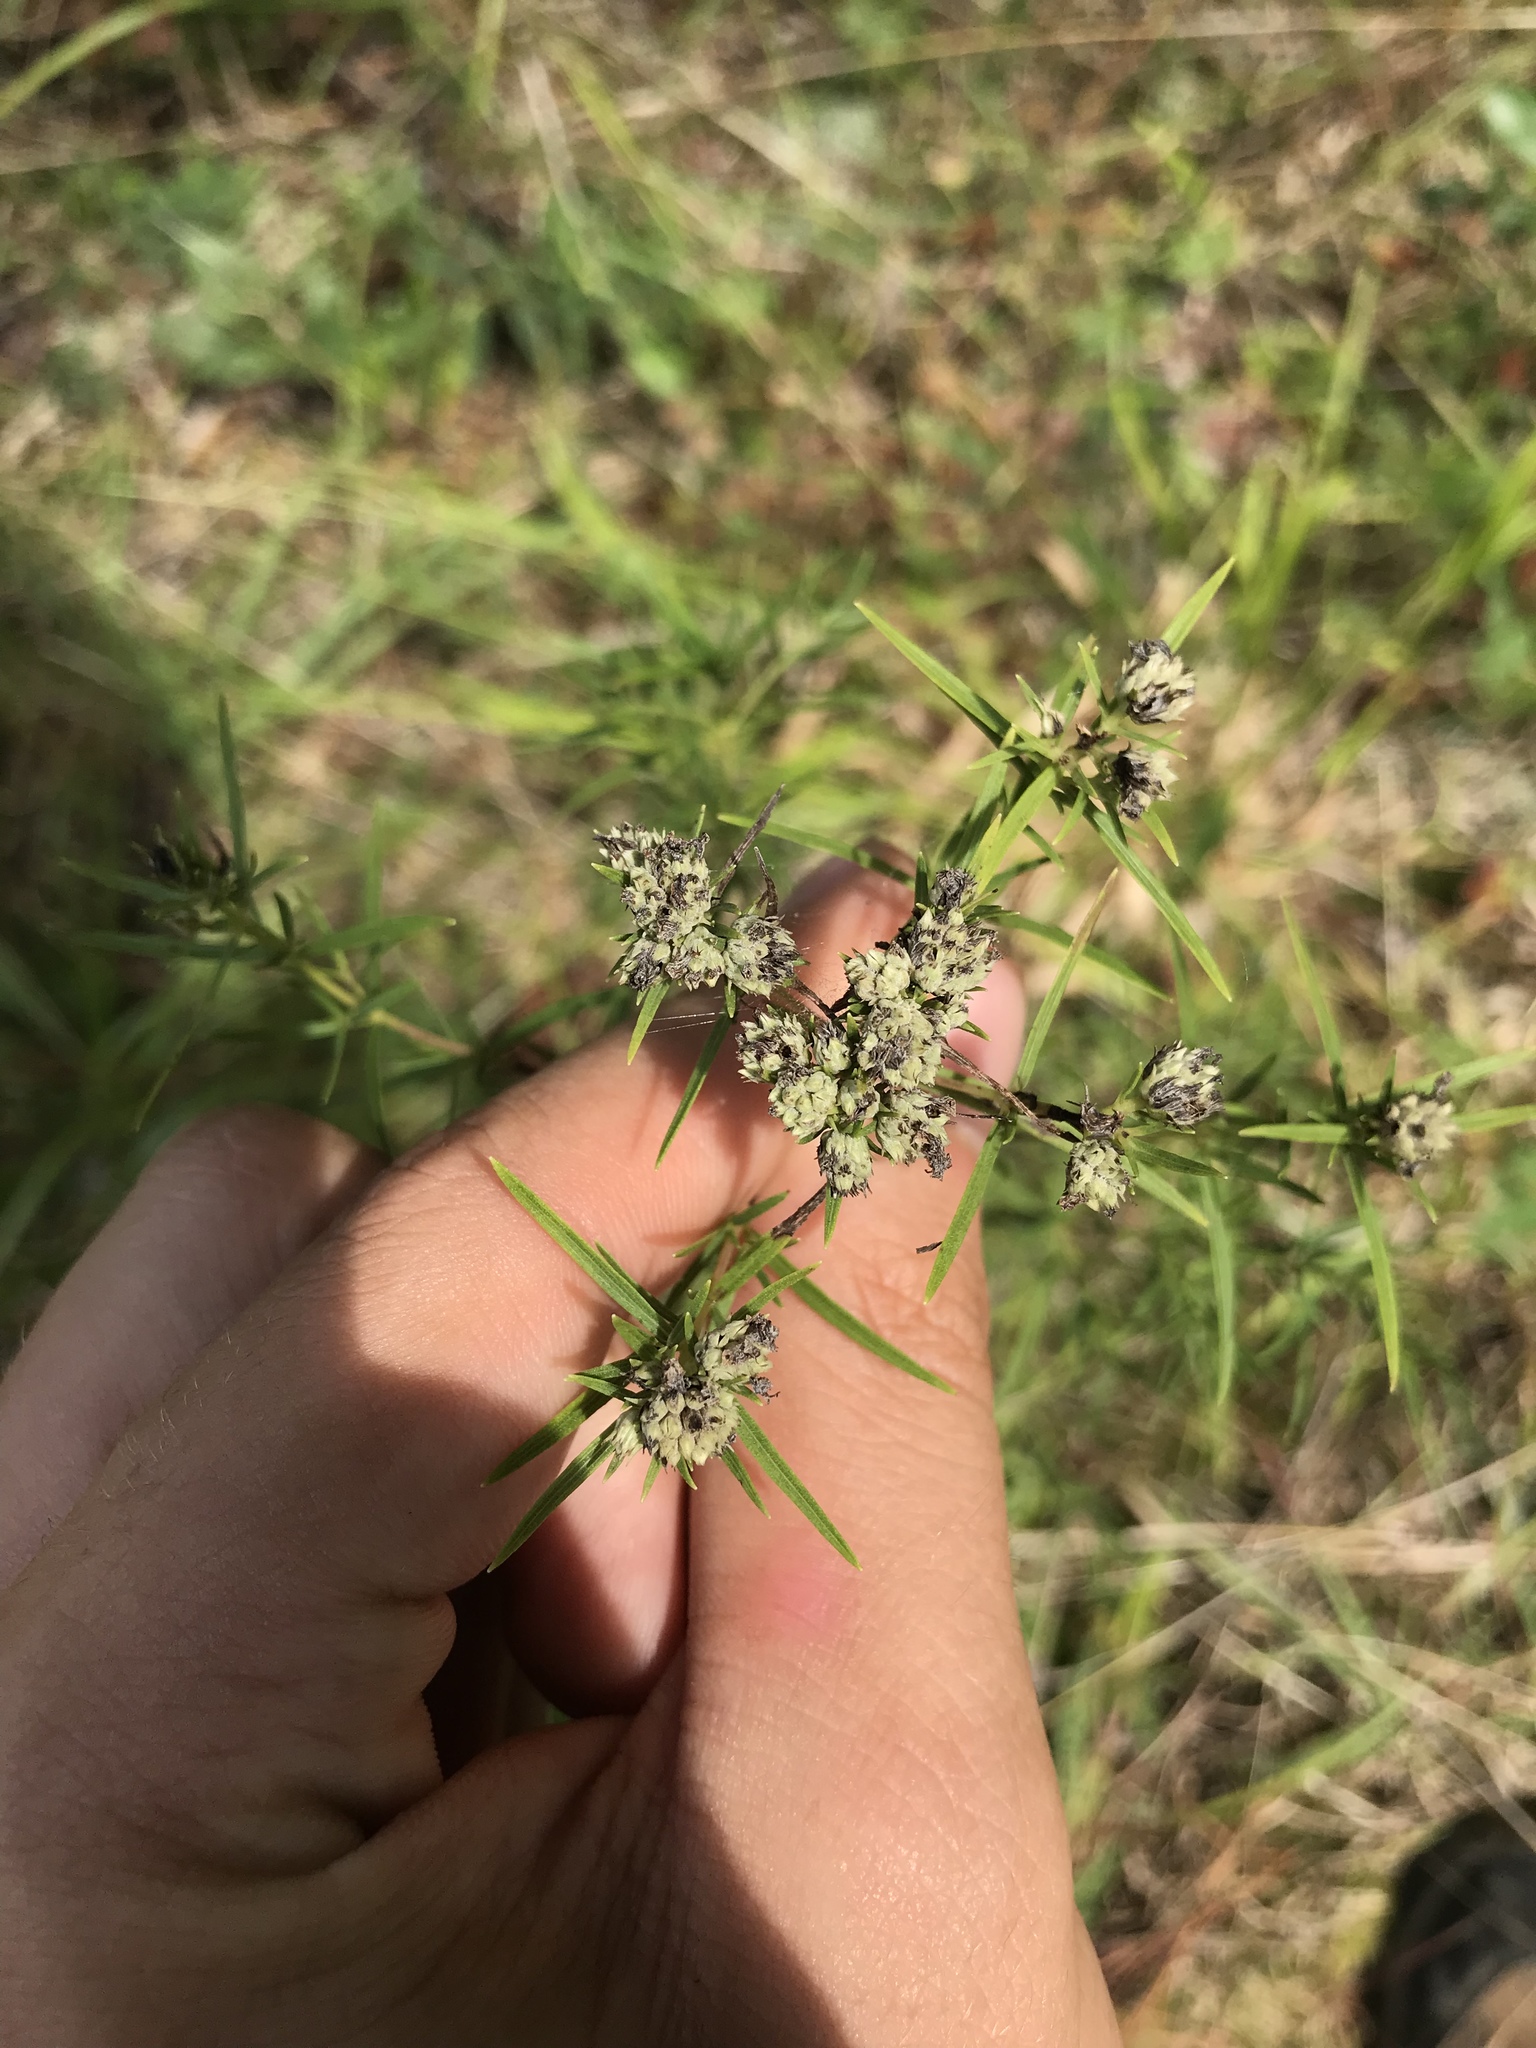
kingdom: Plantae
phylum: Tracheophyta
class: Magnoliopsida
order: Lamiales
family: Lamiaceae
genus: Pycnanthemum
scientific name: Pycnanthemum tenuifolium
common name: Narrow-leaf mountain-mint
